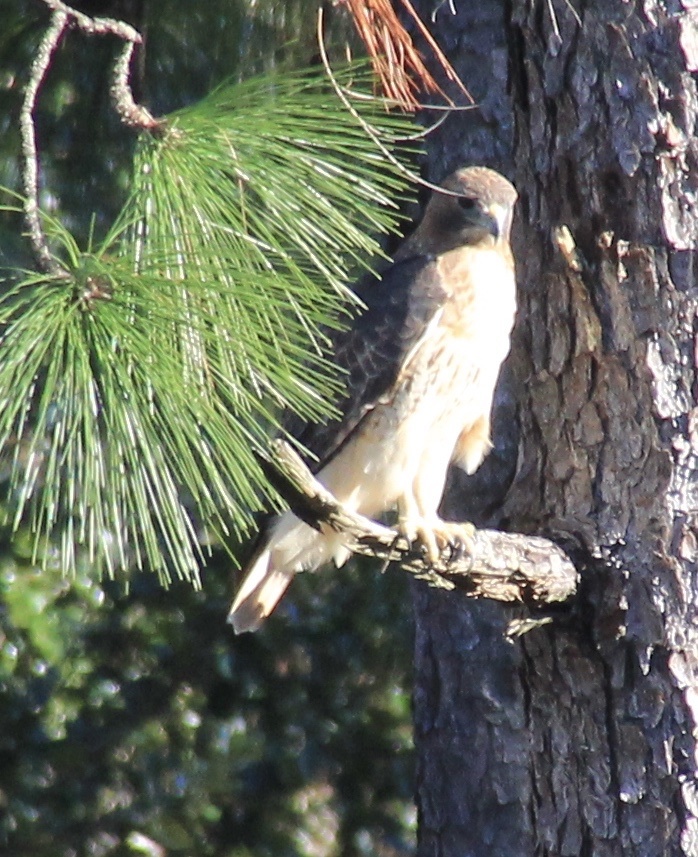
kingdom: Animalia
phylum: Chordata
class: Aves
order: Accipitriformes
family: Accipitridae
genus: Buteo
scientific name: Buteo jamaicensis
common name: Red-tailed hawk
